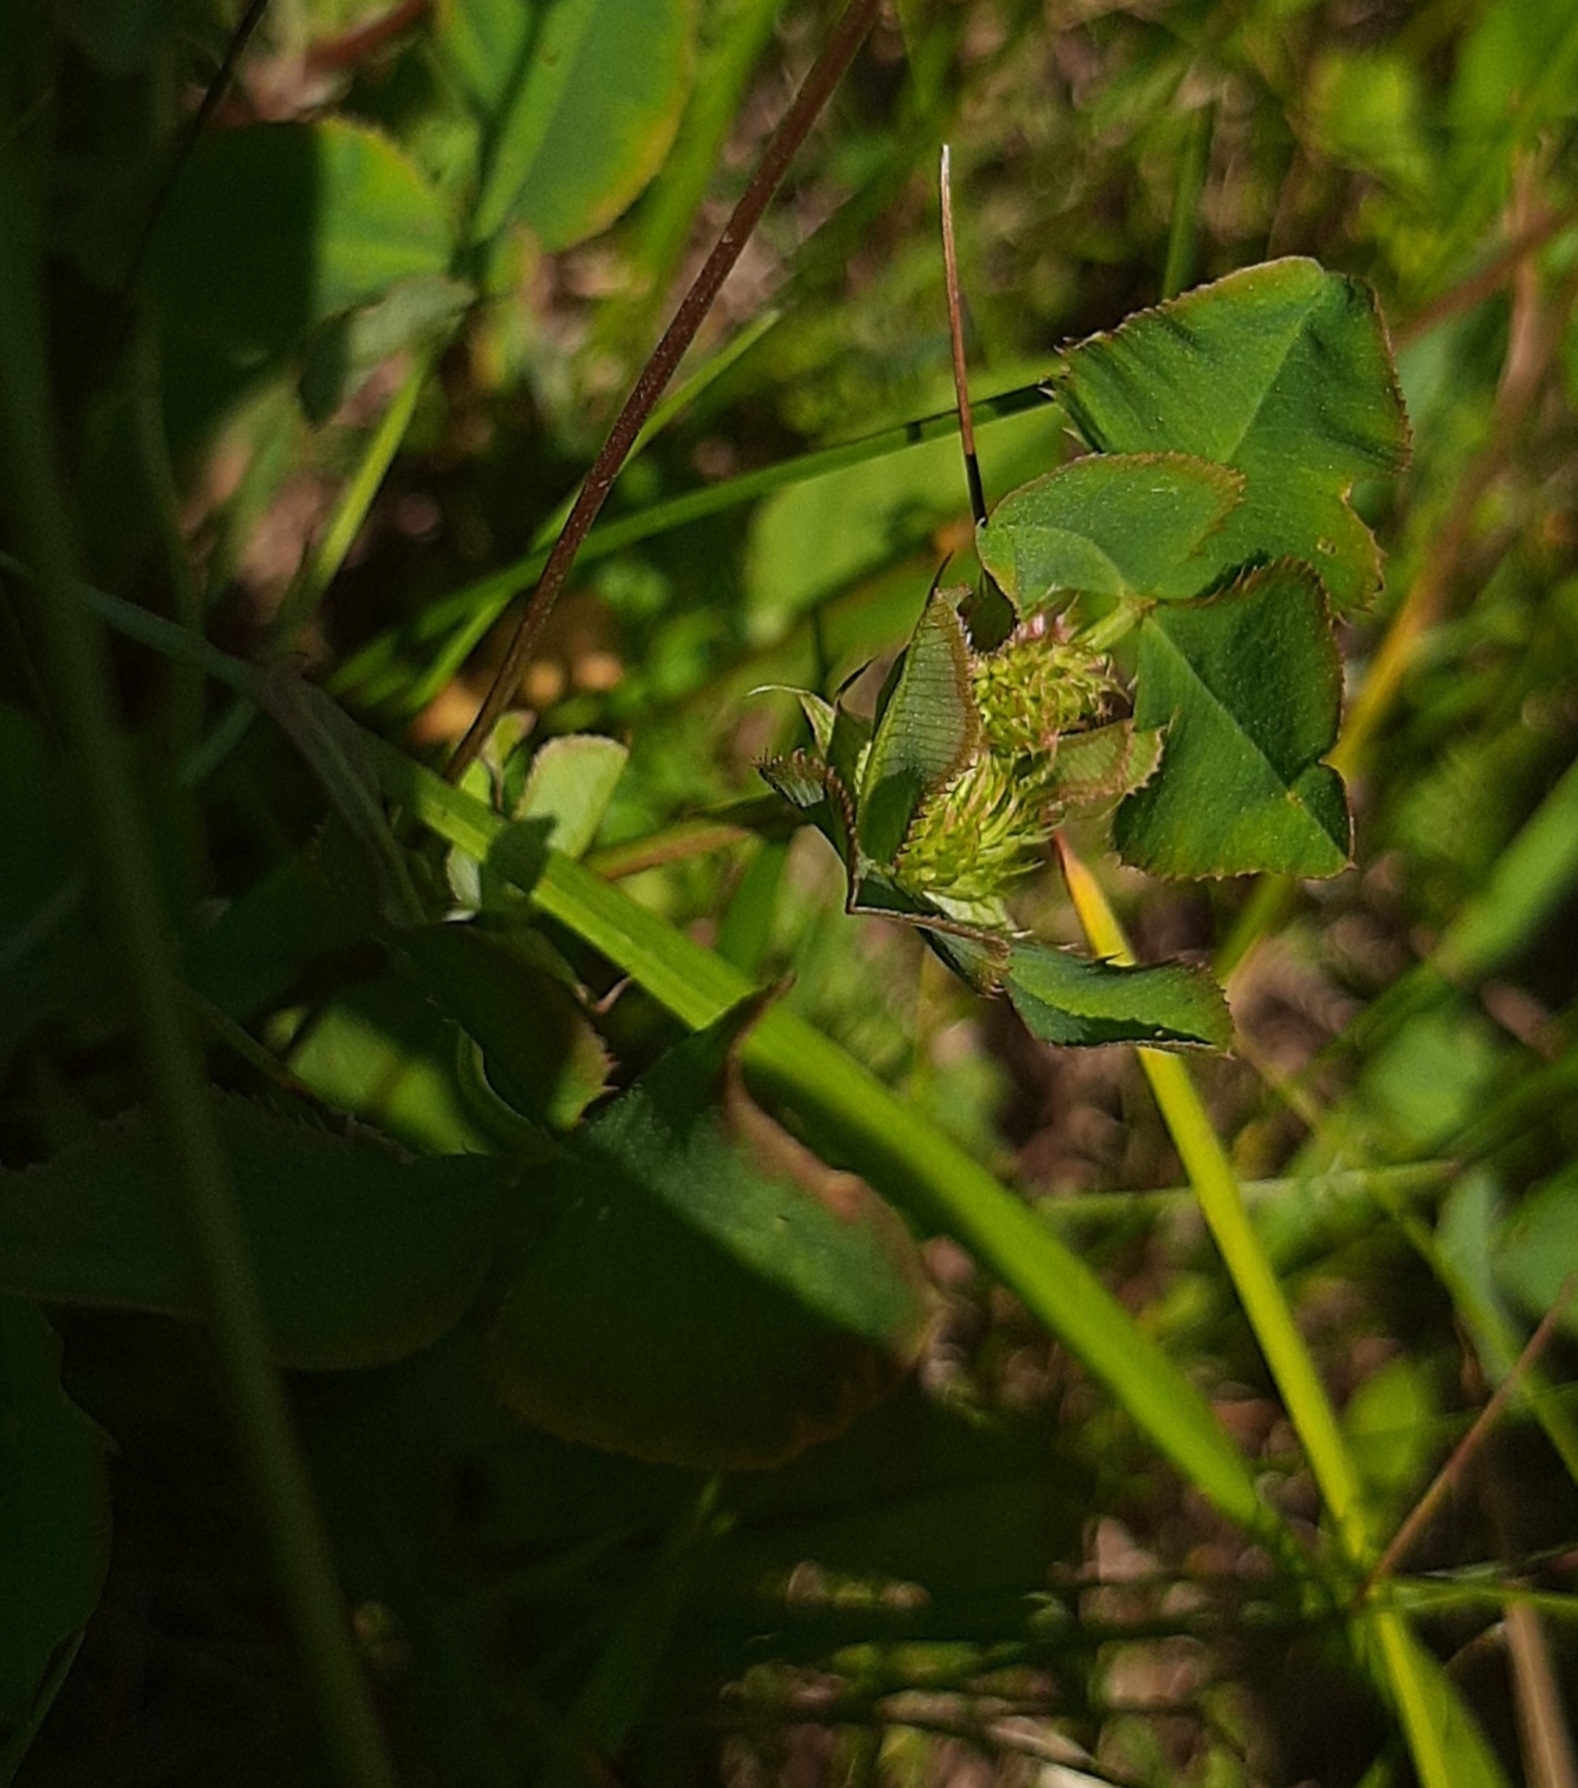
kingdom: Plantae
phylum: Tracheophyta
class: Magnoliopsida
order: Fabales
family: Fabaceae
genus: Medicago
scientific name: Medicago lupulina
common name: Black medick
